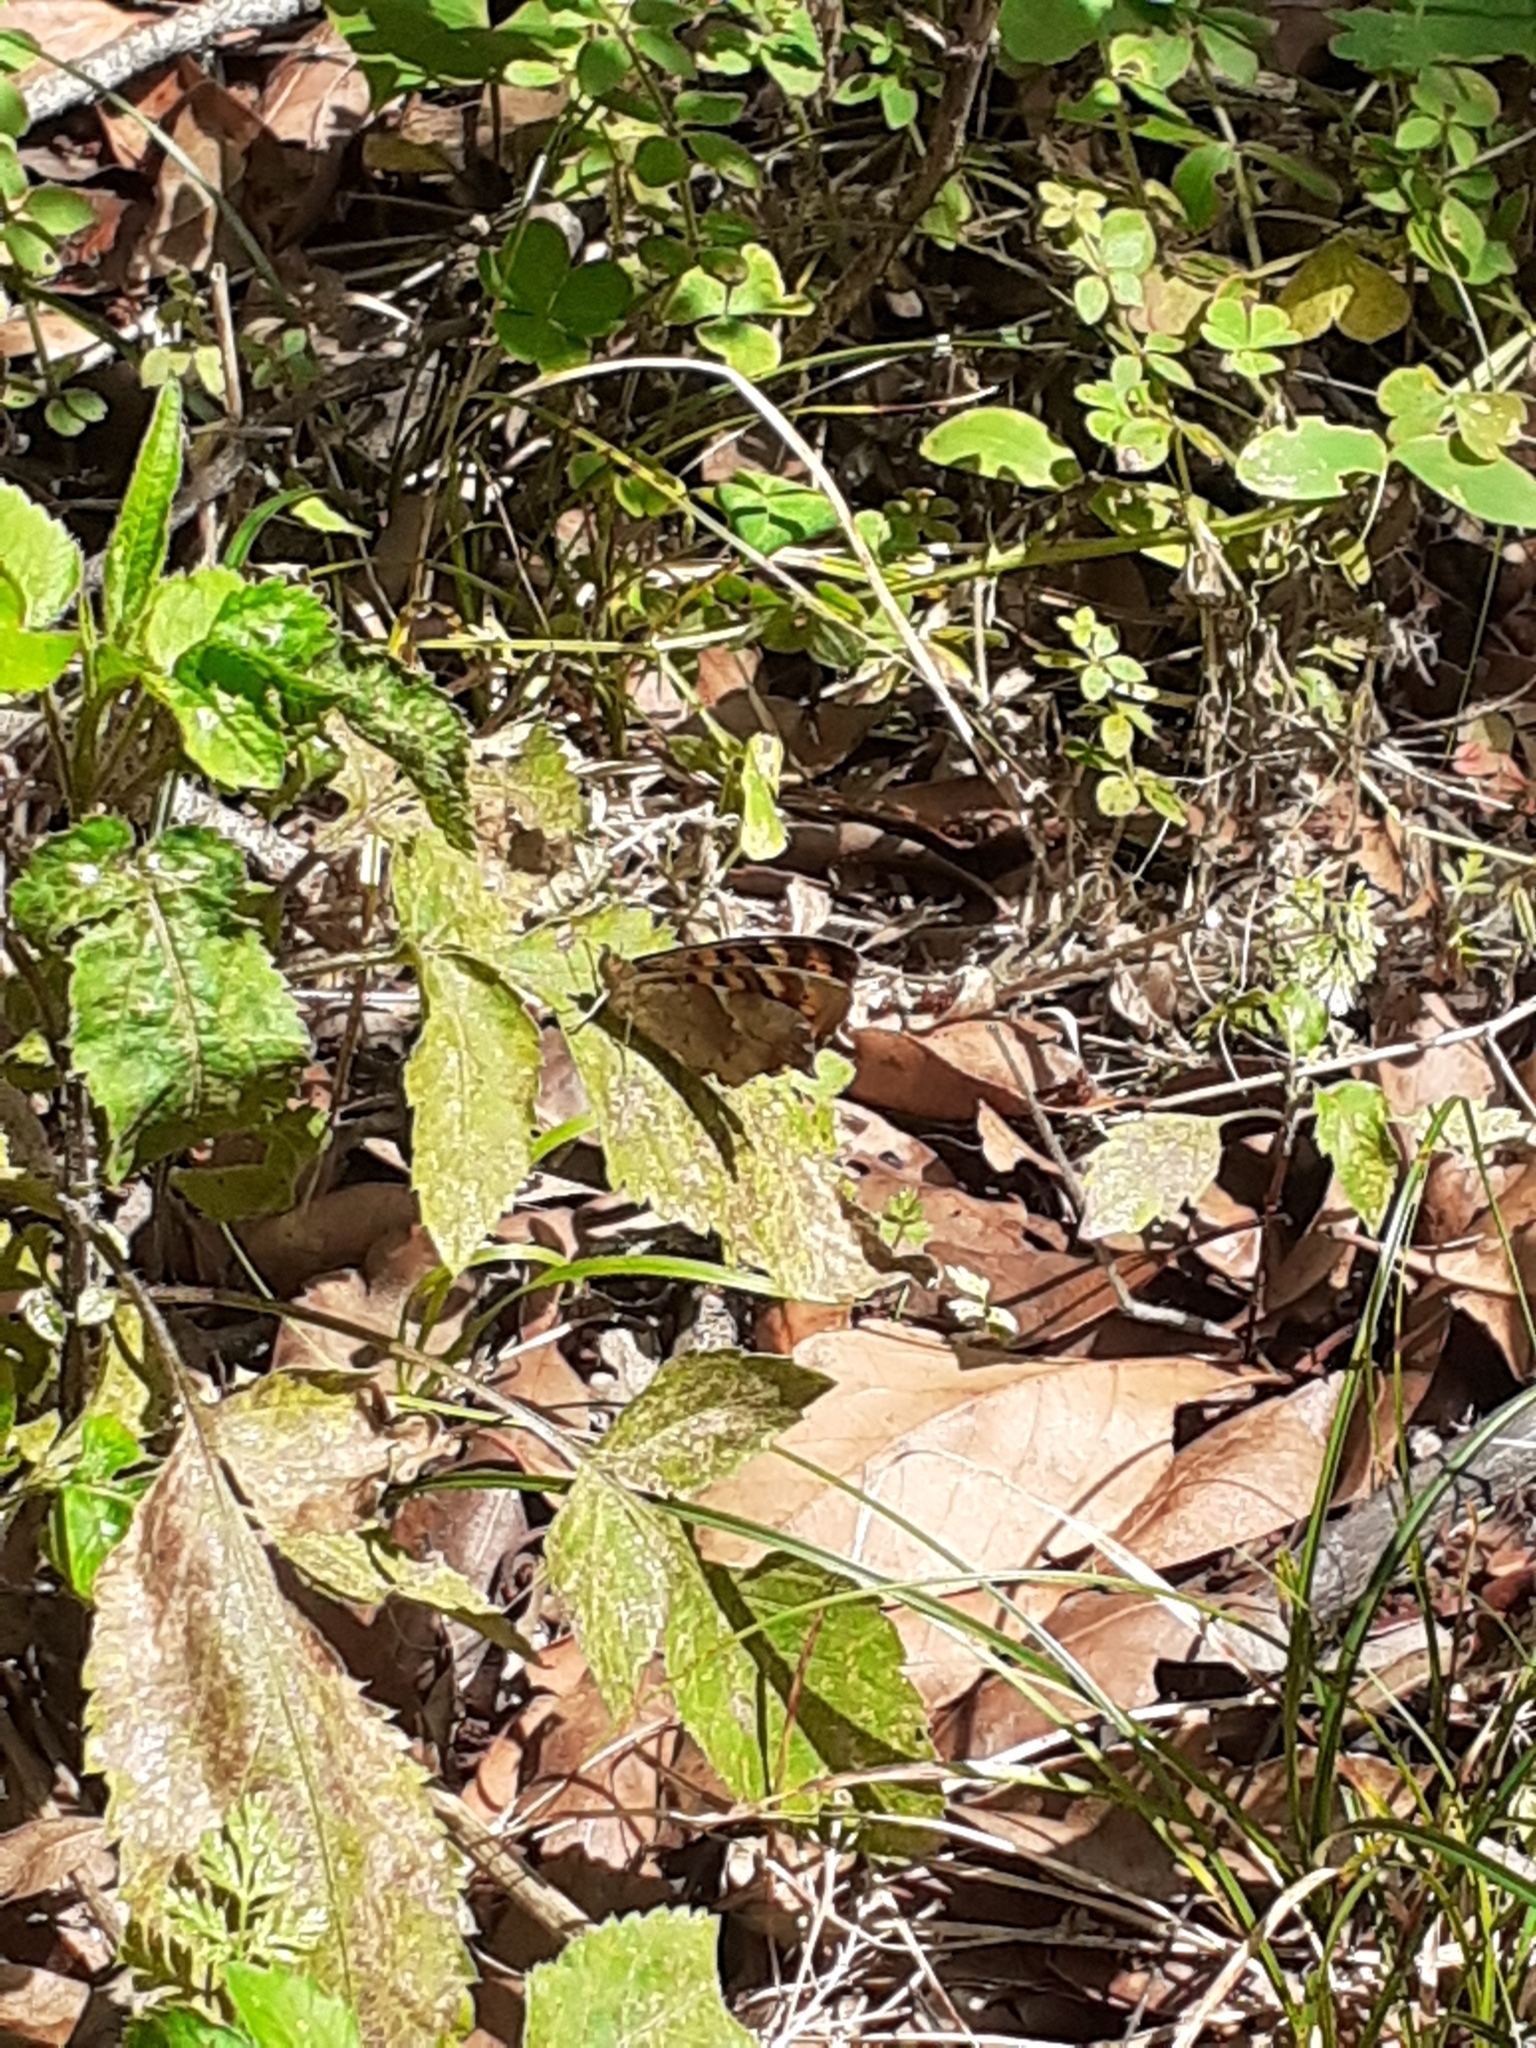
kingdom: Animalia
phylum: Arthropoda
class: Insecta
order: Lepidoptera
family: Nymphalidae
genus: Pararge
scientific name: Pararge aegeria
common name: Speckled wood
